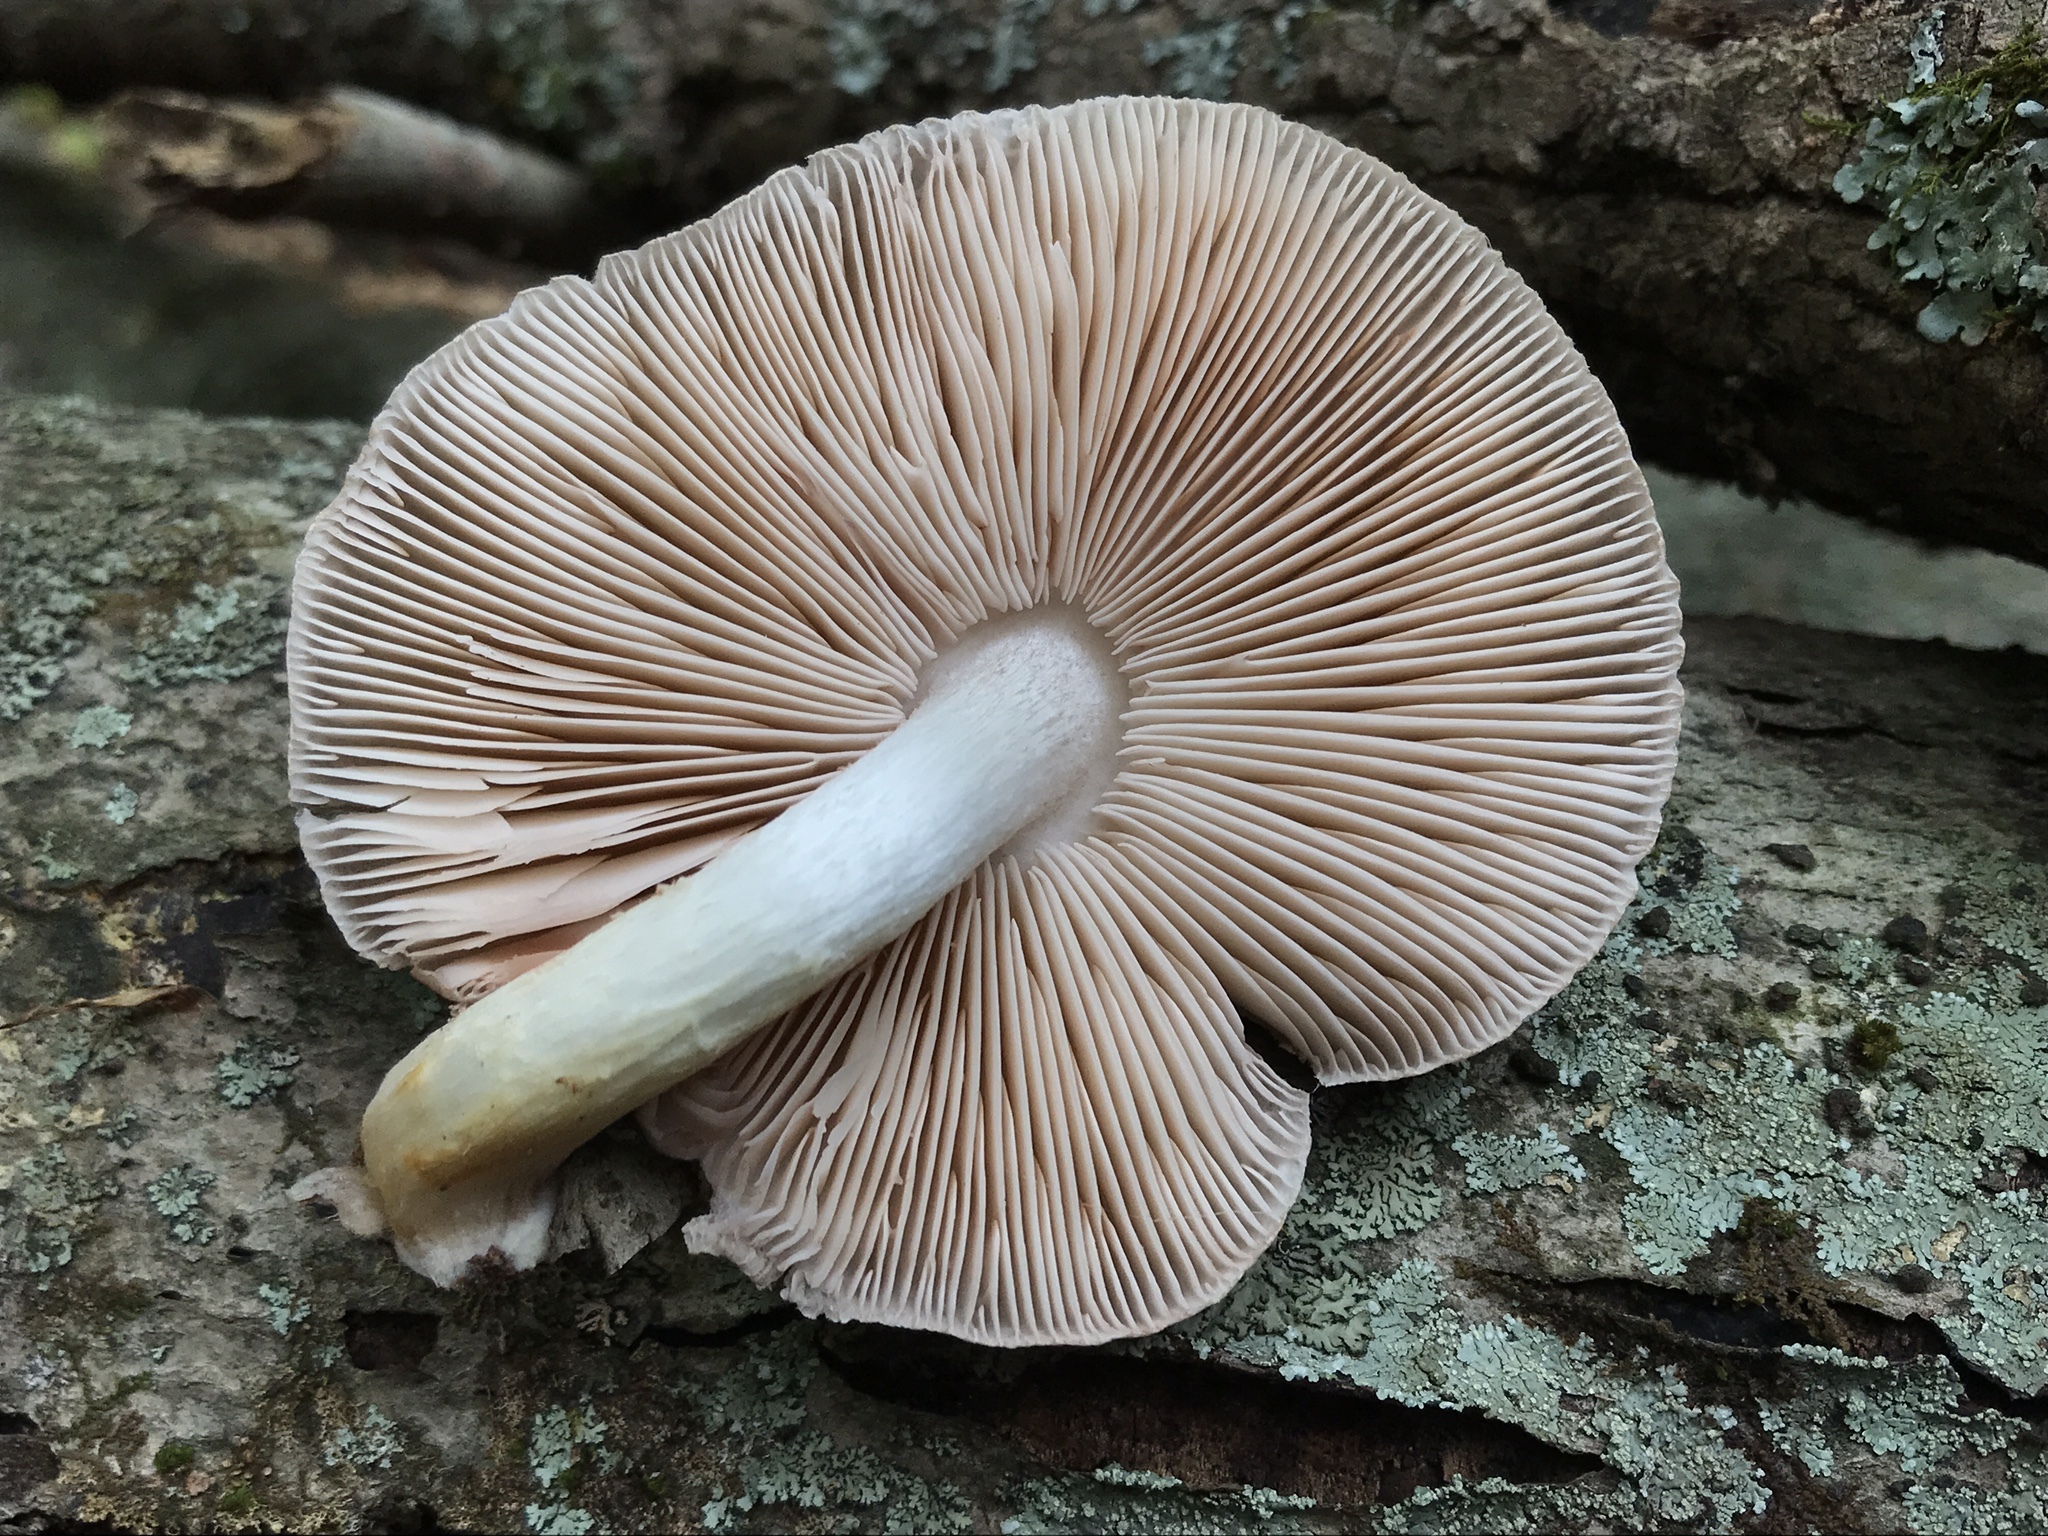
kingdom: Fungi
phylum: Basidiomycota
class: Agaricomycetes
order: Agaricales
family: Pluteaceae
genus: Pluteus
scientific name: Pluteus hongoi
